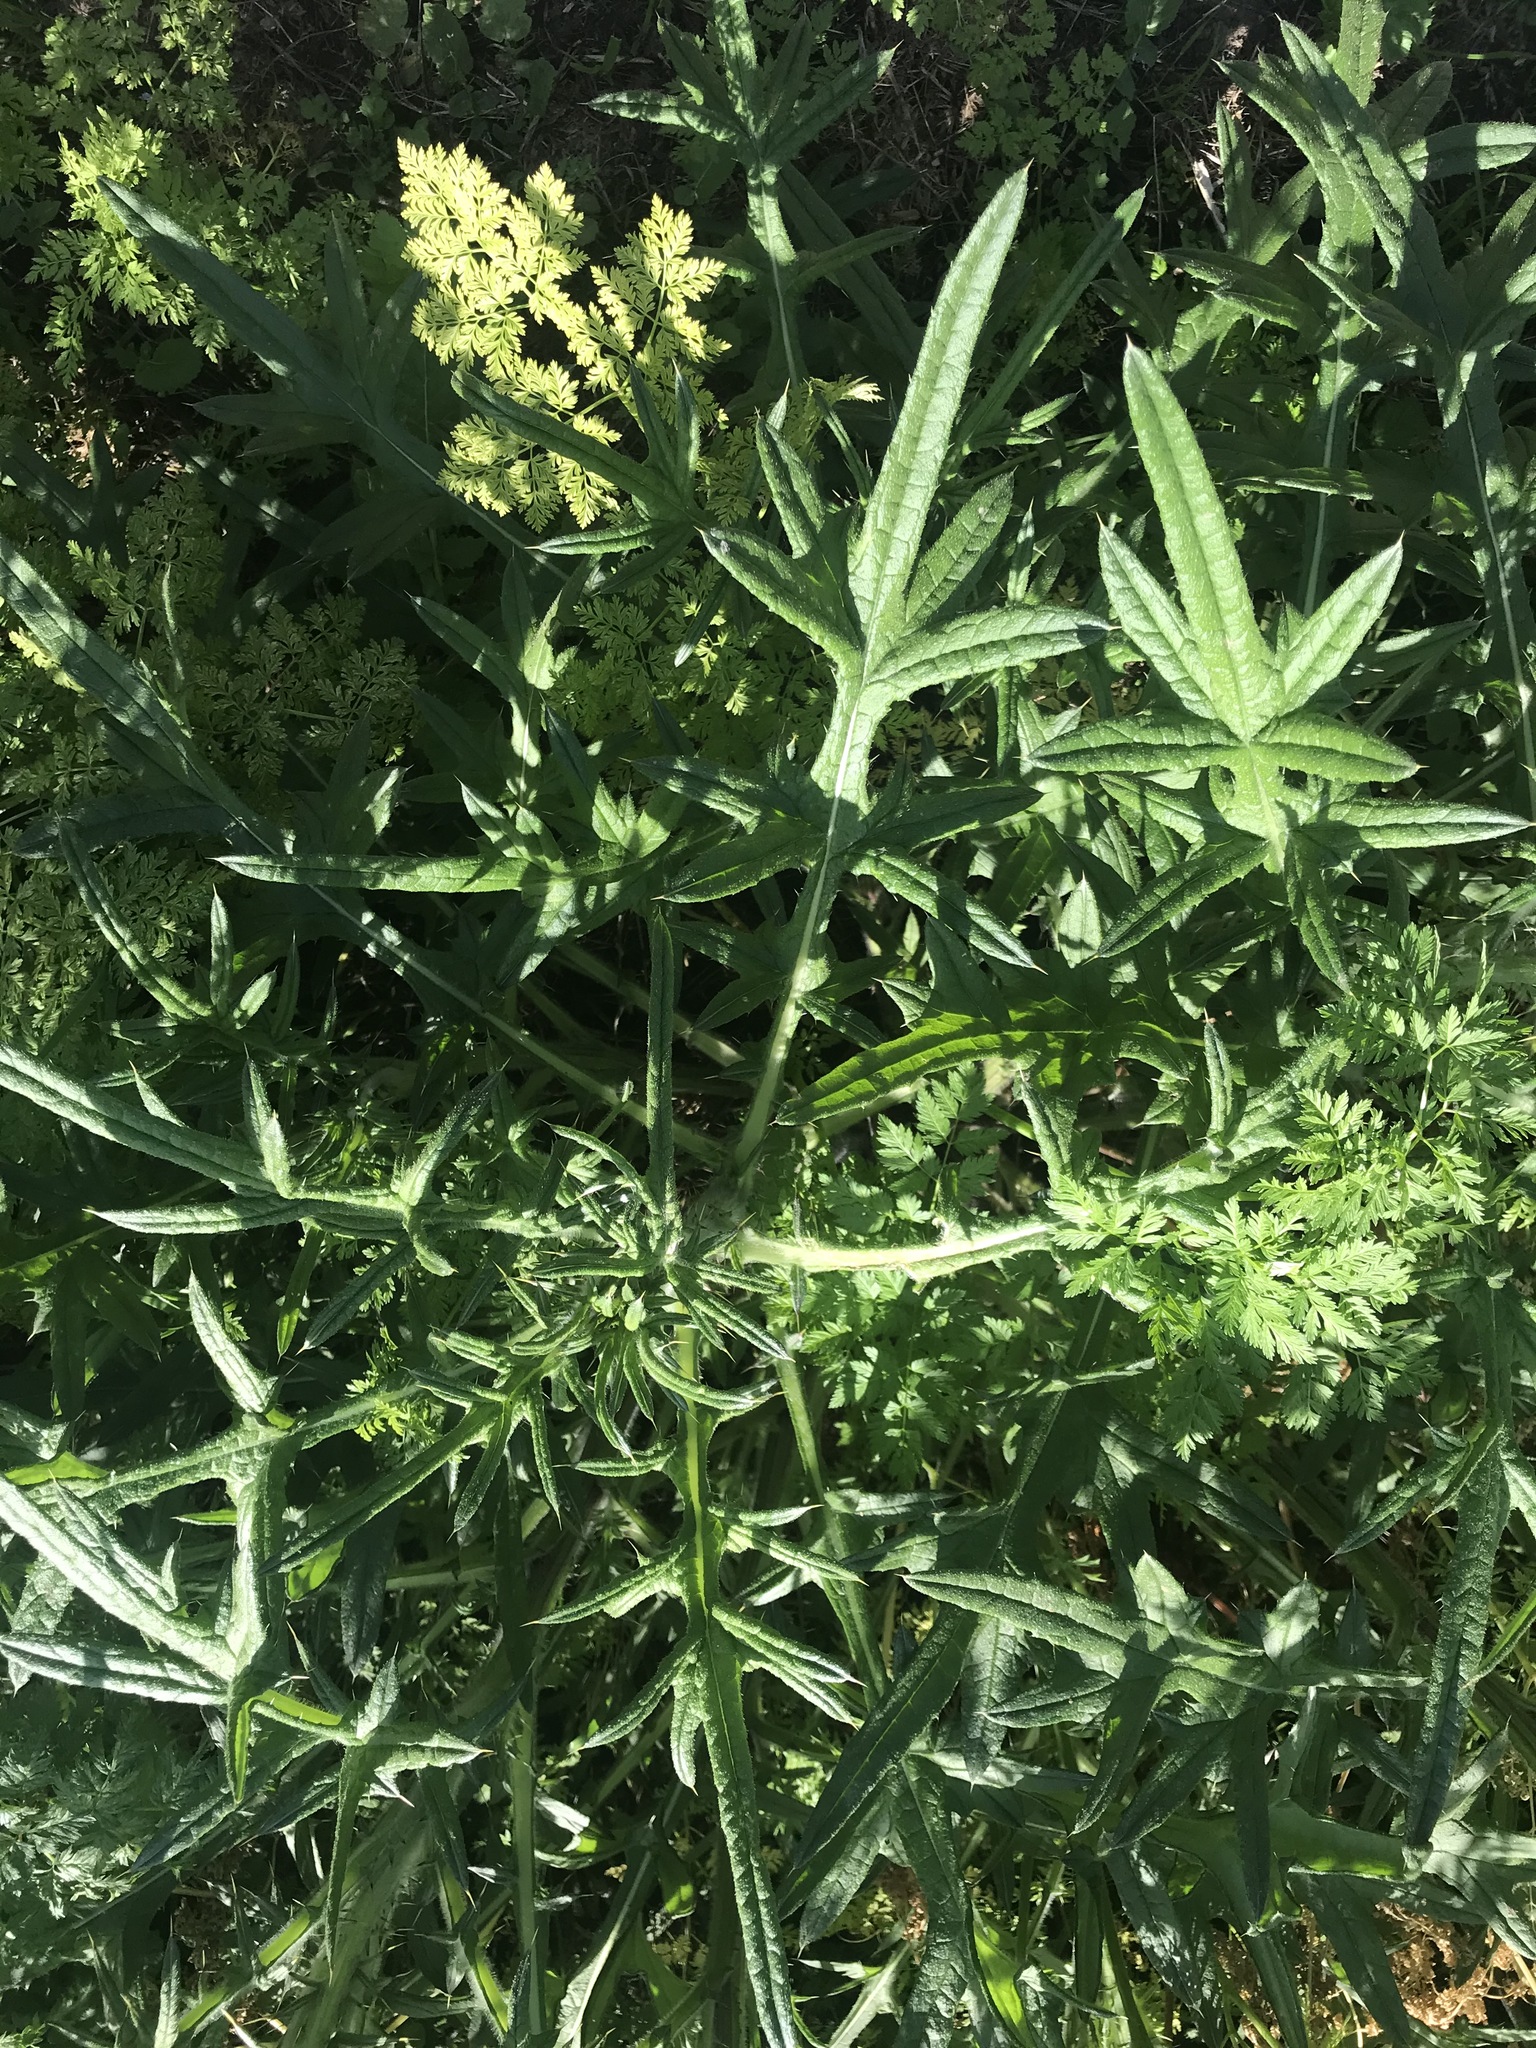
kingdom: Plantae
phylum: Tracheophyta
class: Magnoliopsida
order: Asterales
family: Asteraceae
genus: Cirsium
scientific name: Cirsium vulgare
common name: Bull thistle
